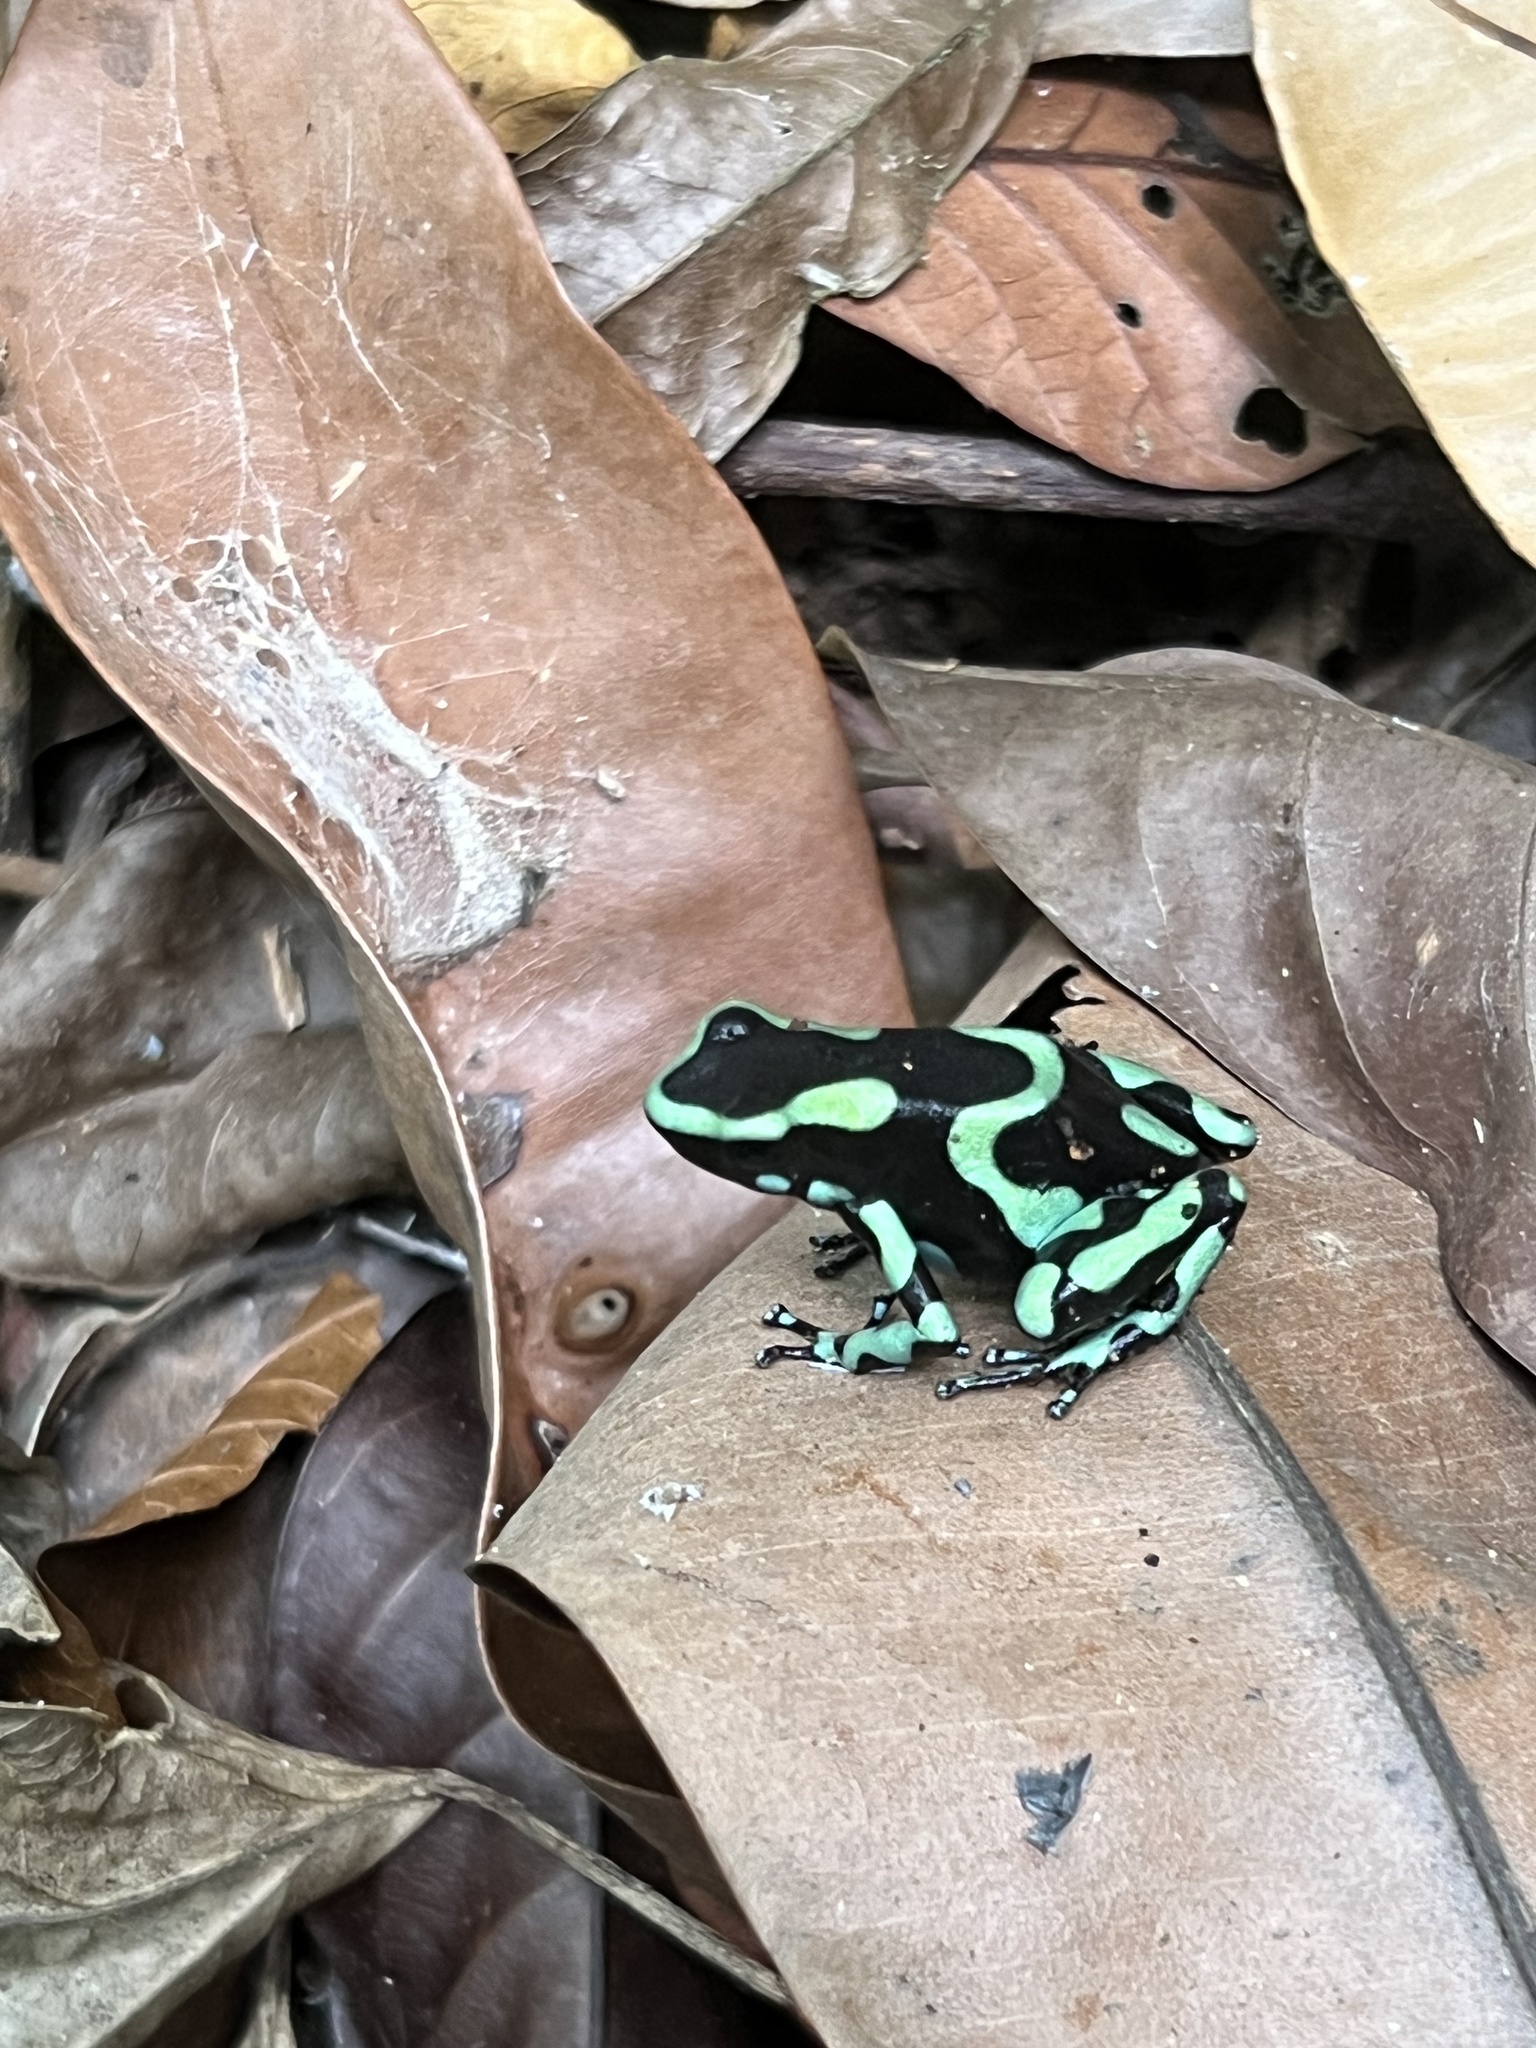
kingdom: Animalia
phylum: Chordata
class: Amphibia
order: Anura
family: Dendrobatidae
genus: Dendrobates
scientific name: Dendrobates auratus
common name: Green and black poison dart frog
